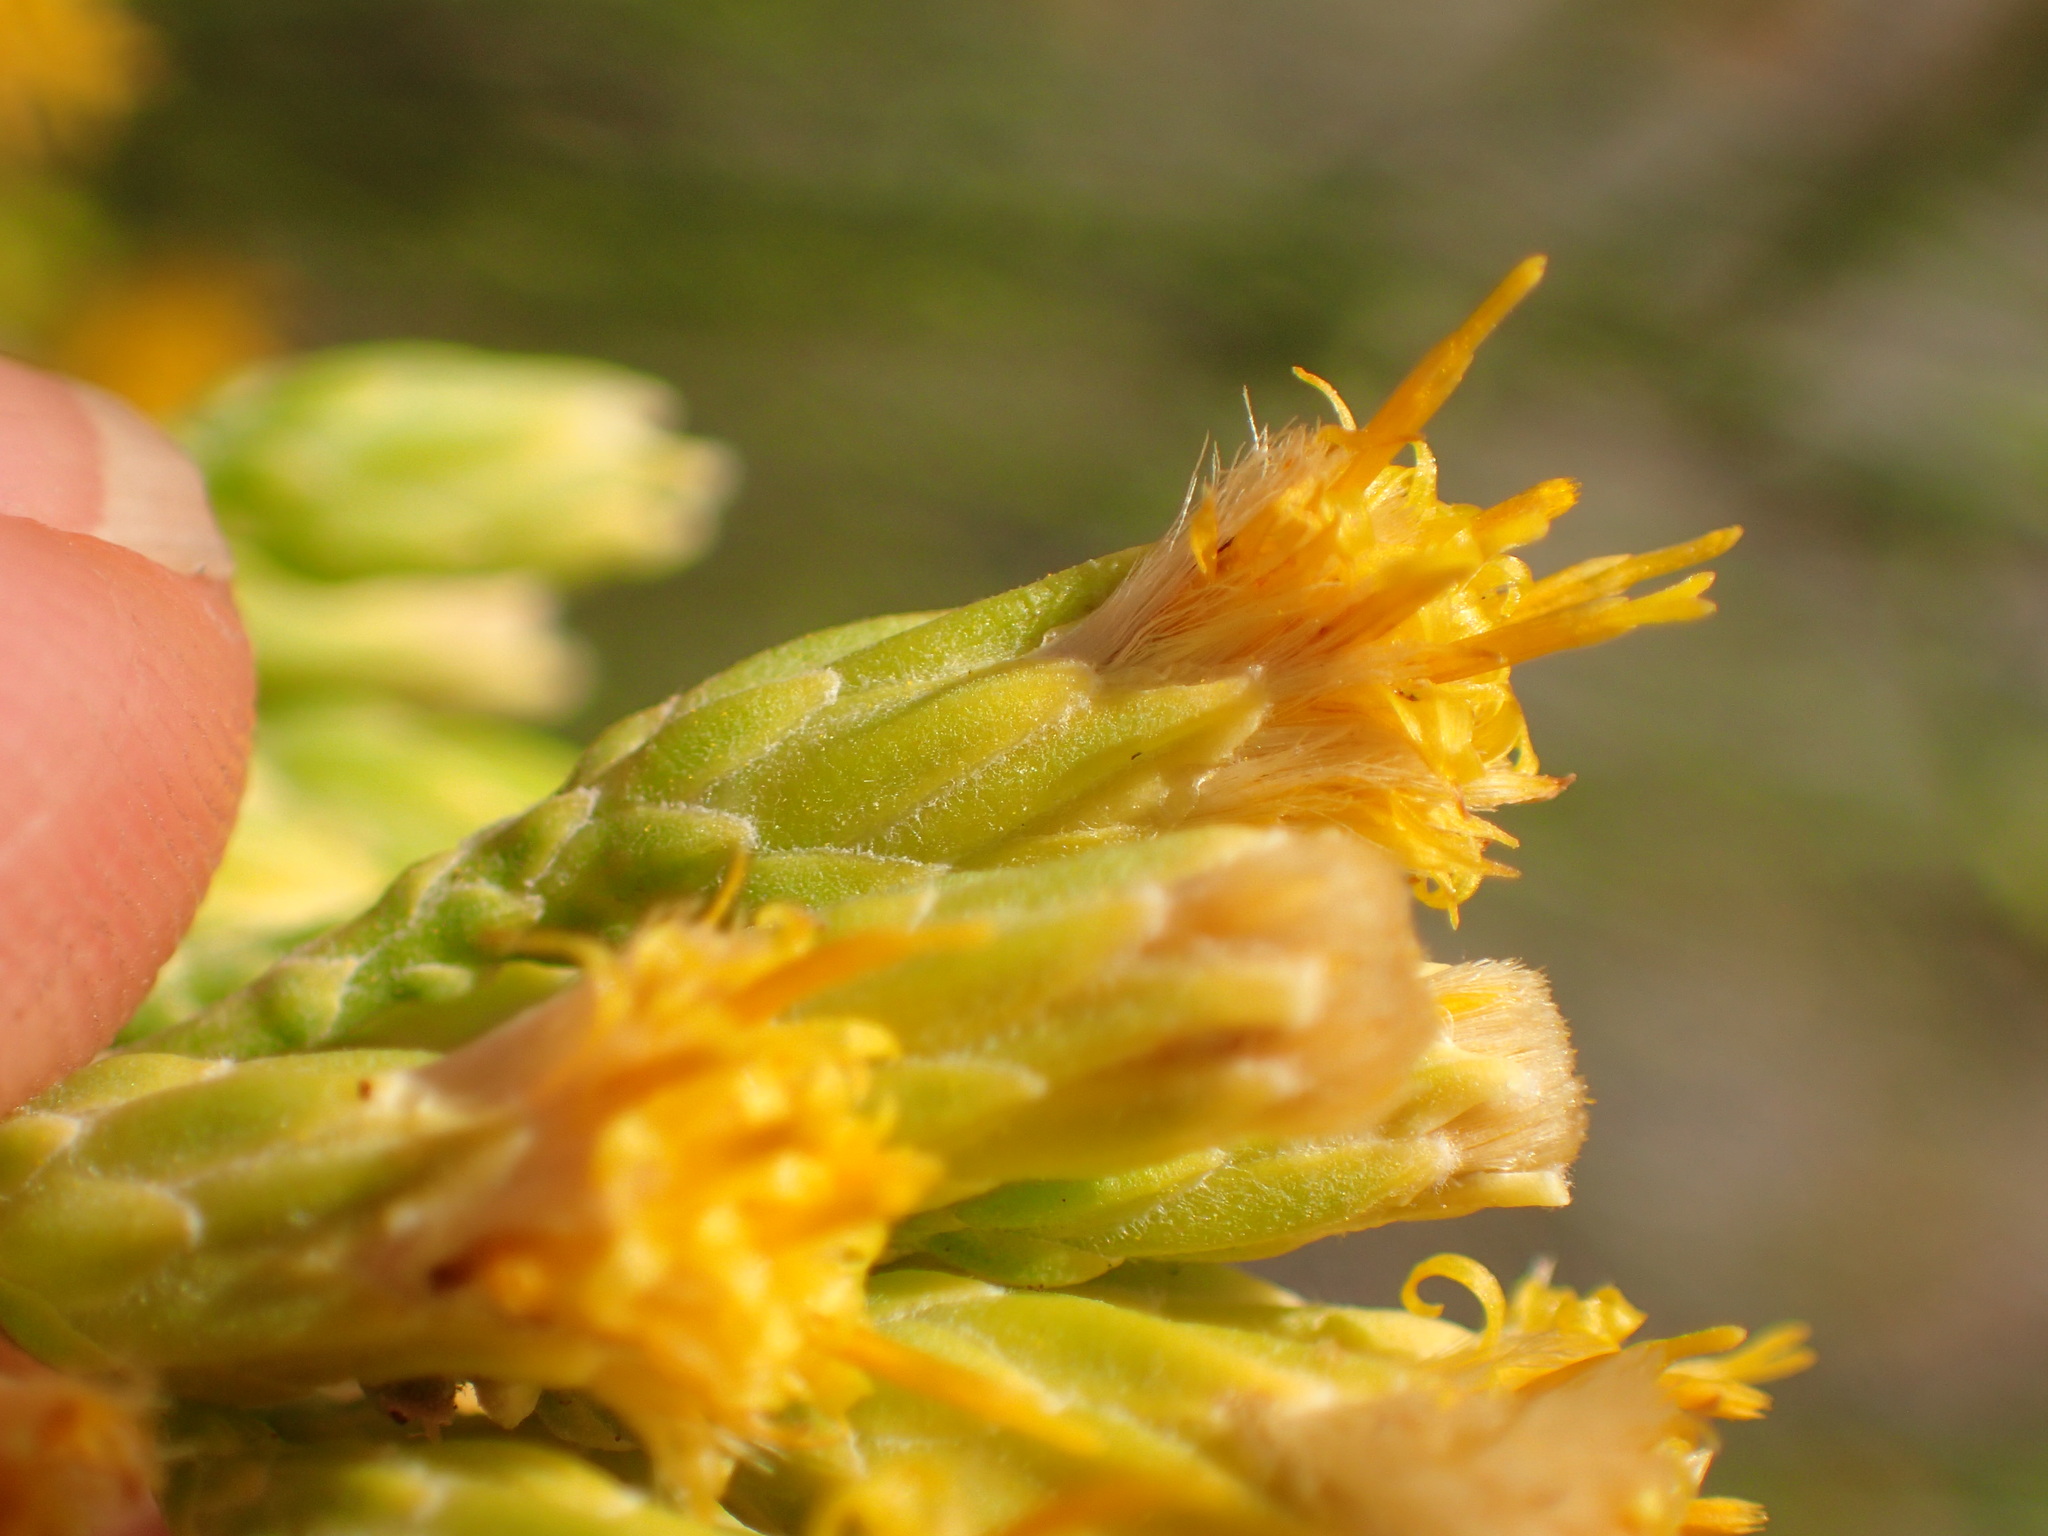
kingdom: Plantae
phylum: Tracheophyta
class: Magnoliopsida
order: Asterales
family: Asteraceae
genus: Lepidospartum
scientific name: Lepidospartum squamatum
